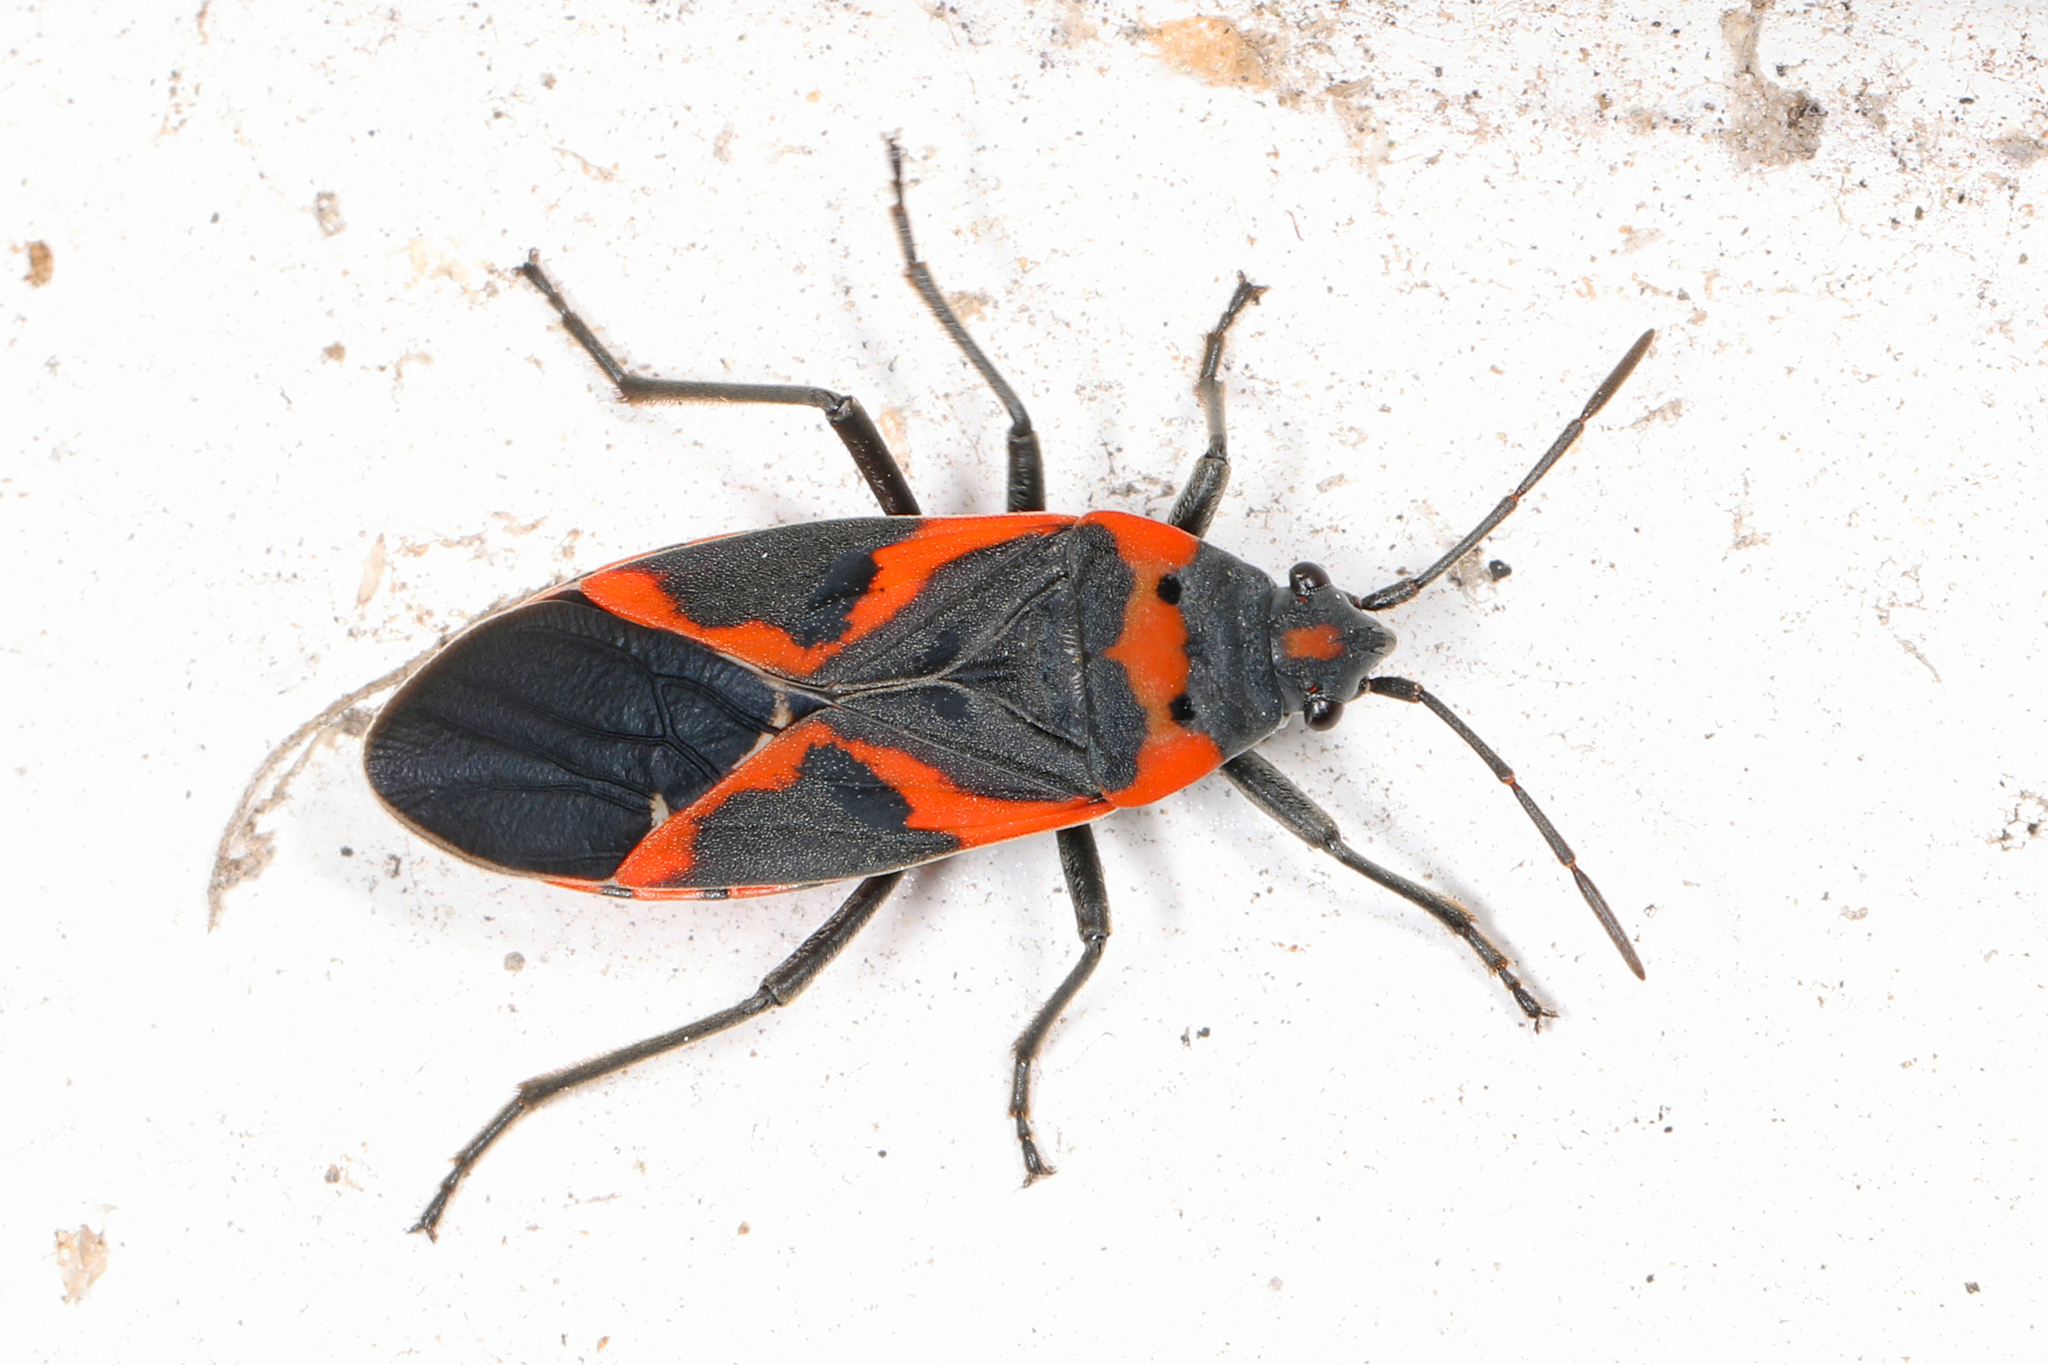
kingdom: Animalia
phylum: Arthropoda
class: Insecta
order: Hemiptera
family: Lygaeidae
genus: Lygaeus
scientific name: Lygaeus kalmii
